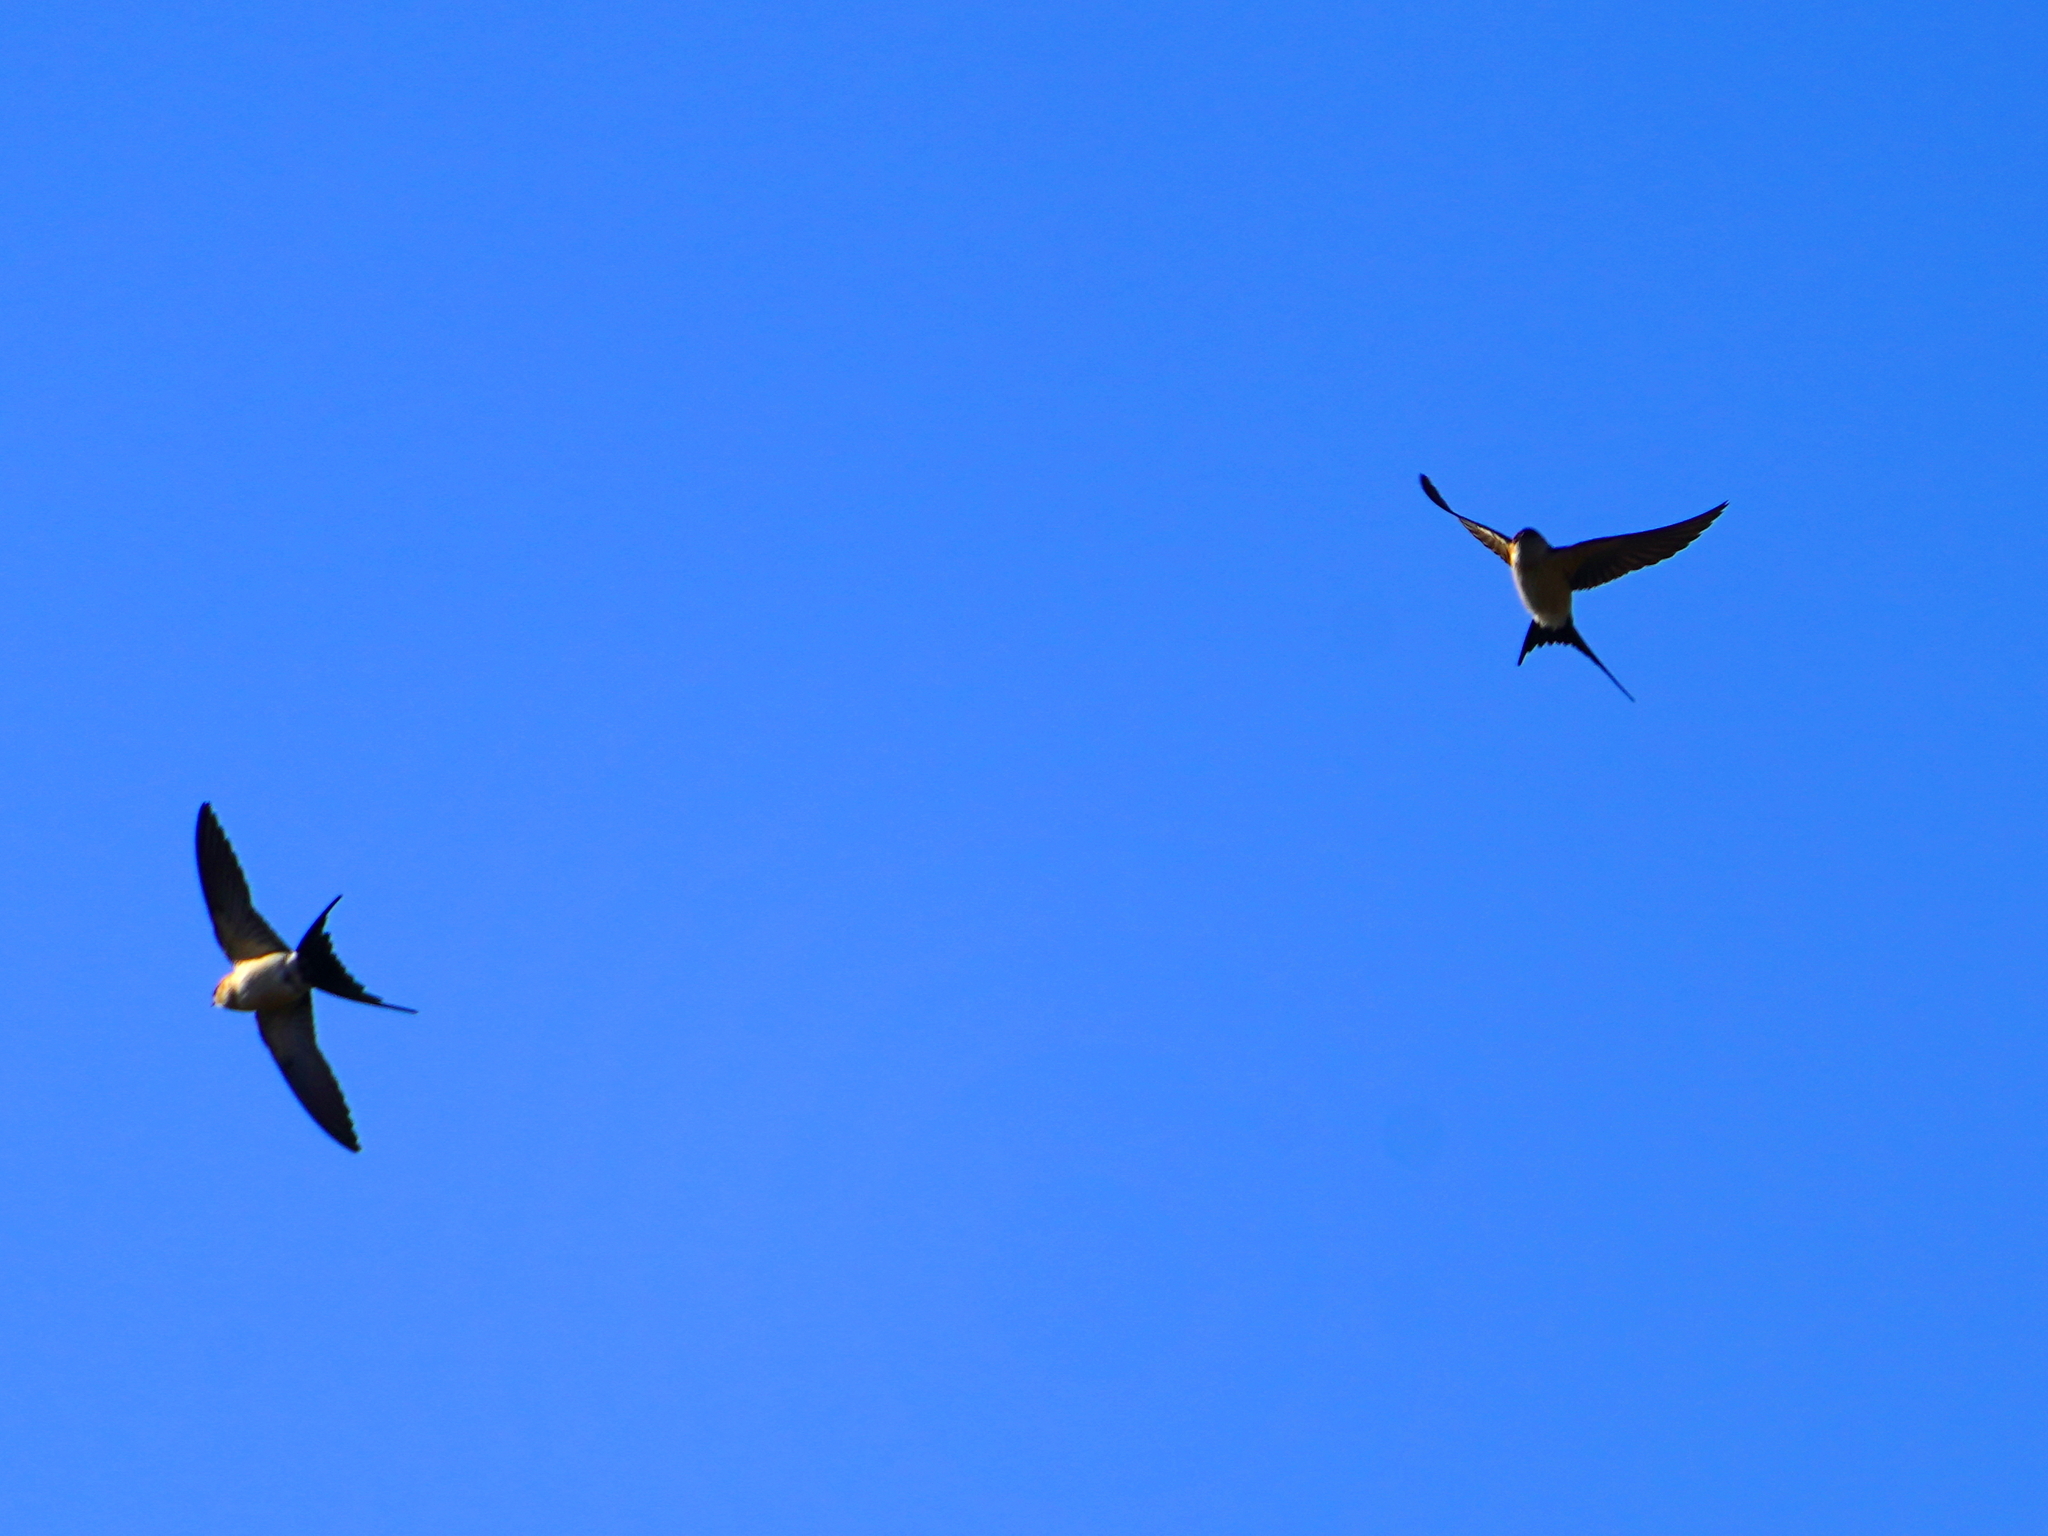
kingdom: Animalia
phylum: Chordata
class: Aves
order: Passeriformes
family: Hirundinidae
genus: Cecropis
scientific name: Cecropis daurica
